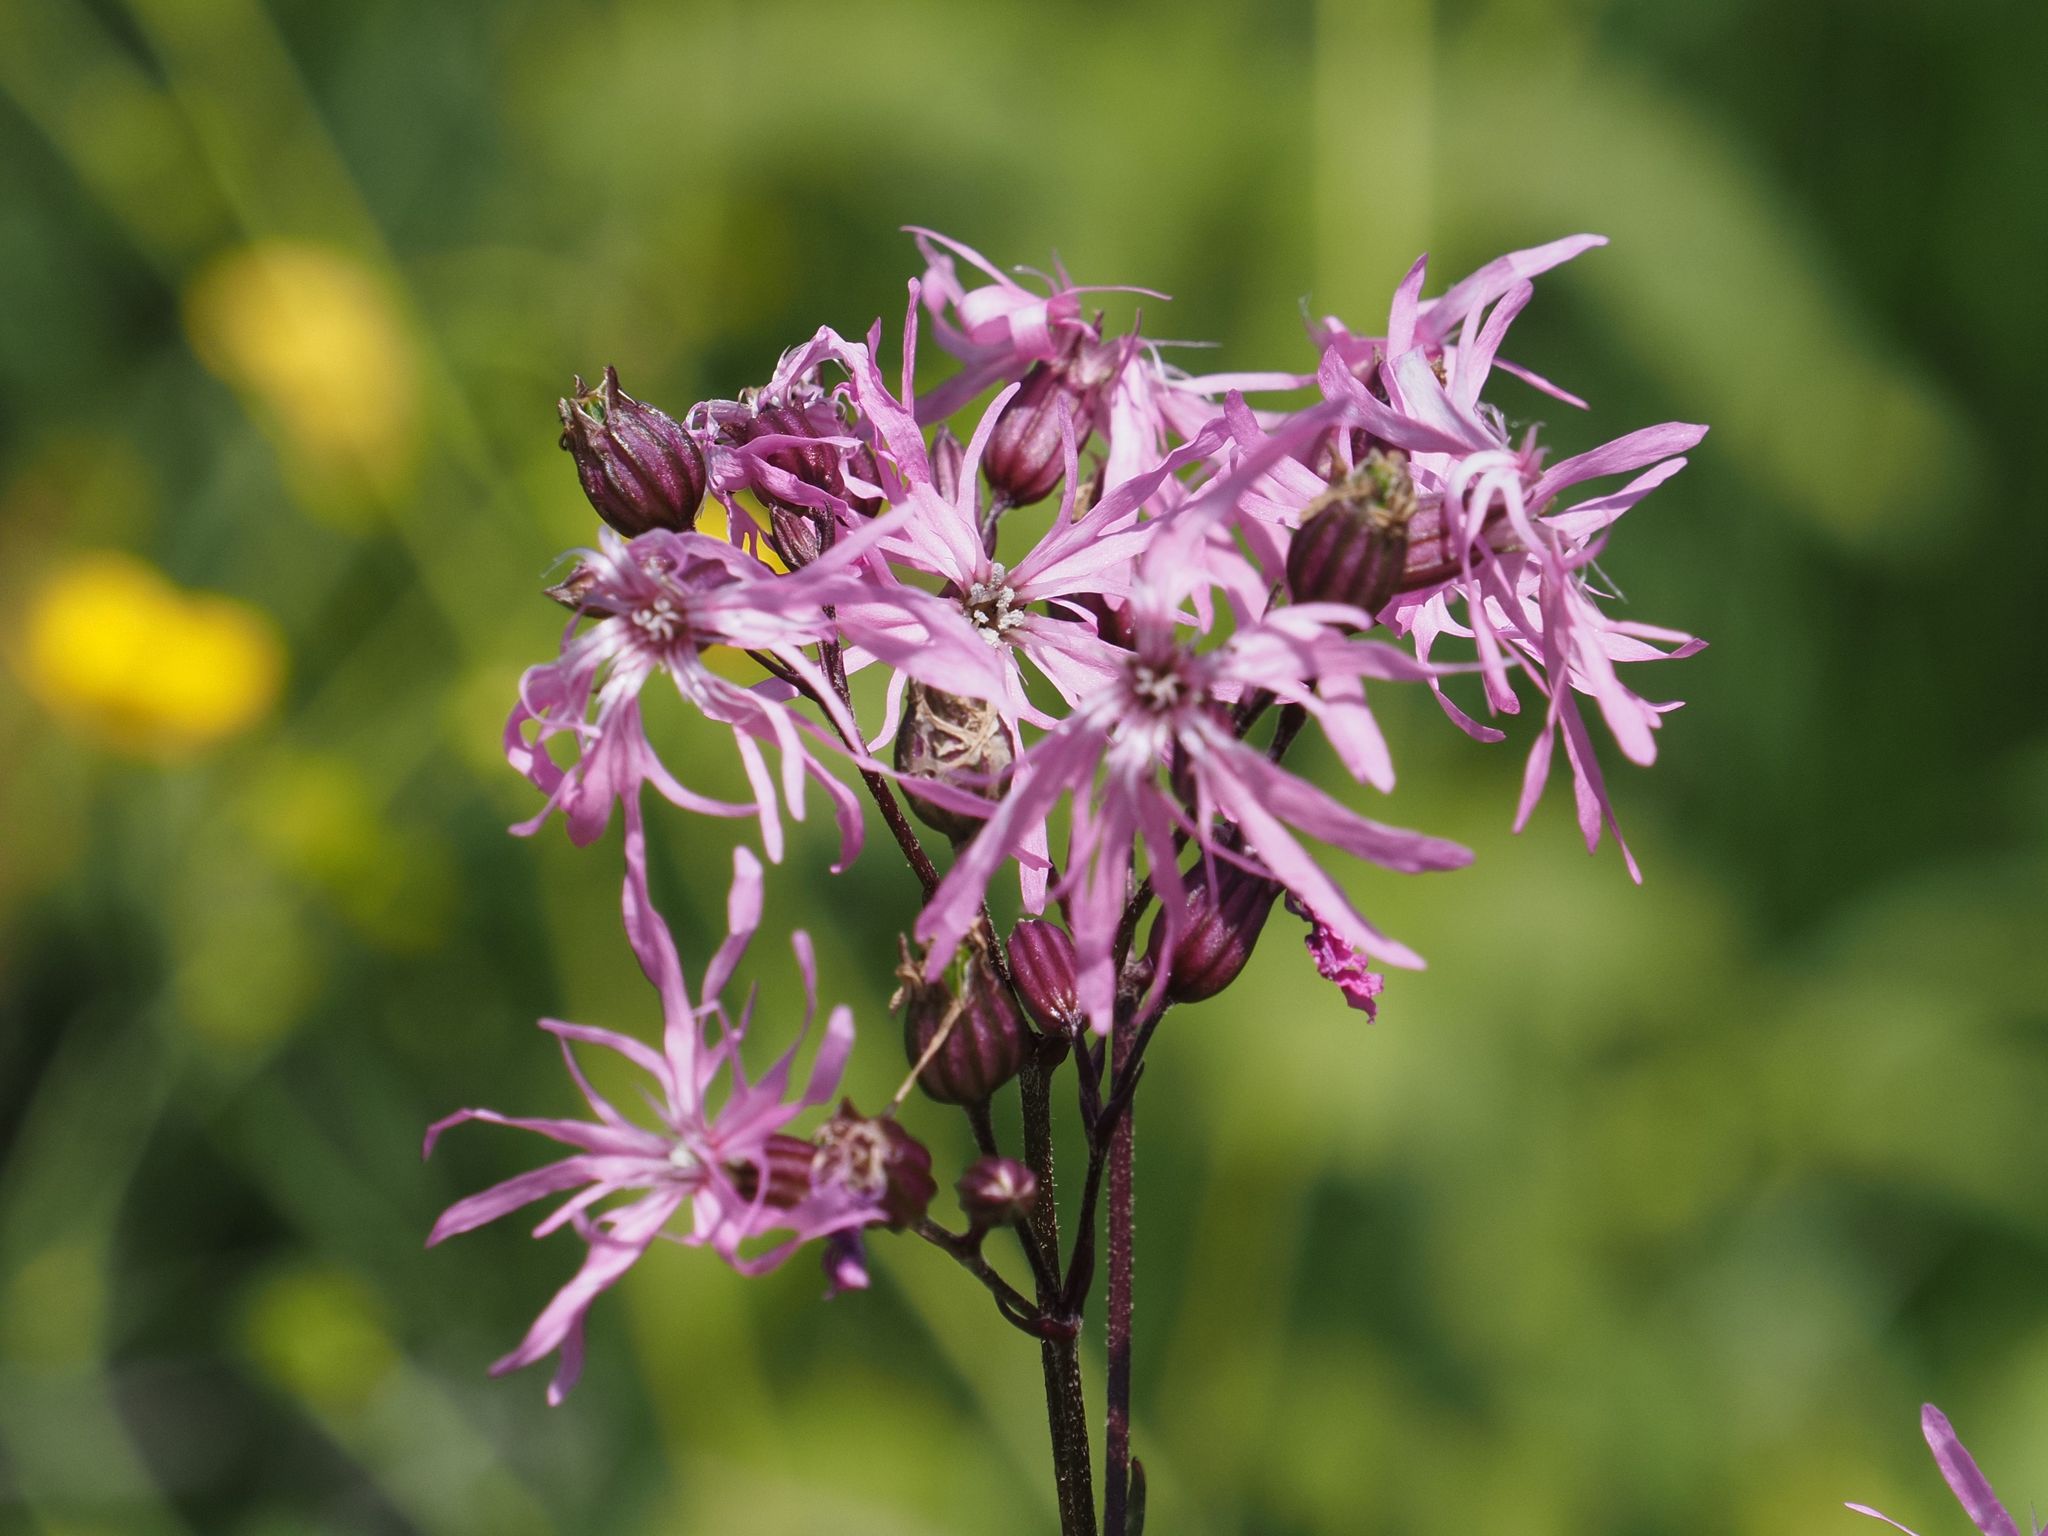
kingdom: Plantae
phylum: Tracheophyta
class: Magnoliopsida
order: Caryophyllales
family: Caryophyllaceae
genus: Silene
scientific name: Silene flos-cuculi
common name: Ragged-robin
